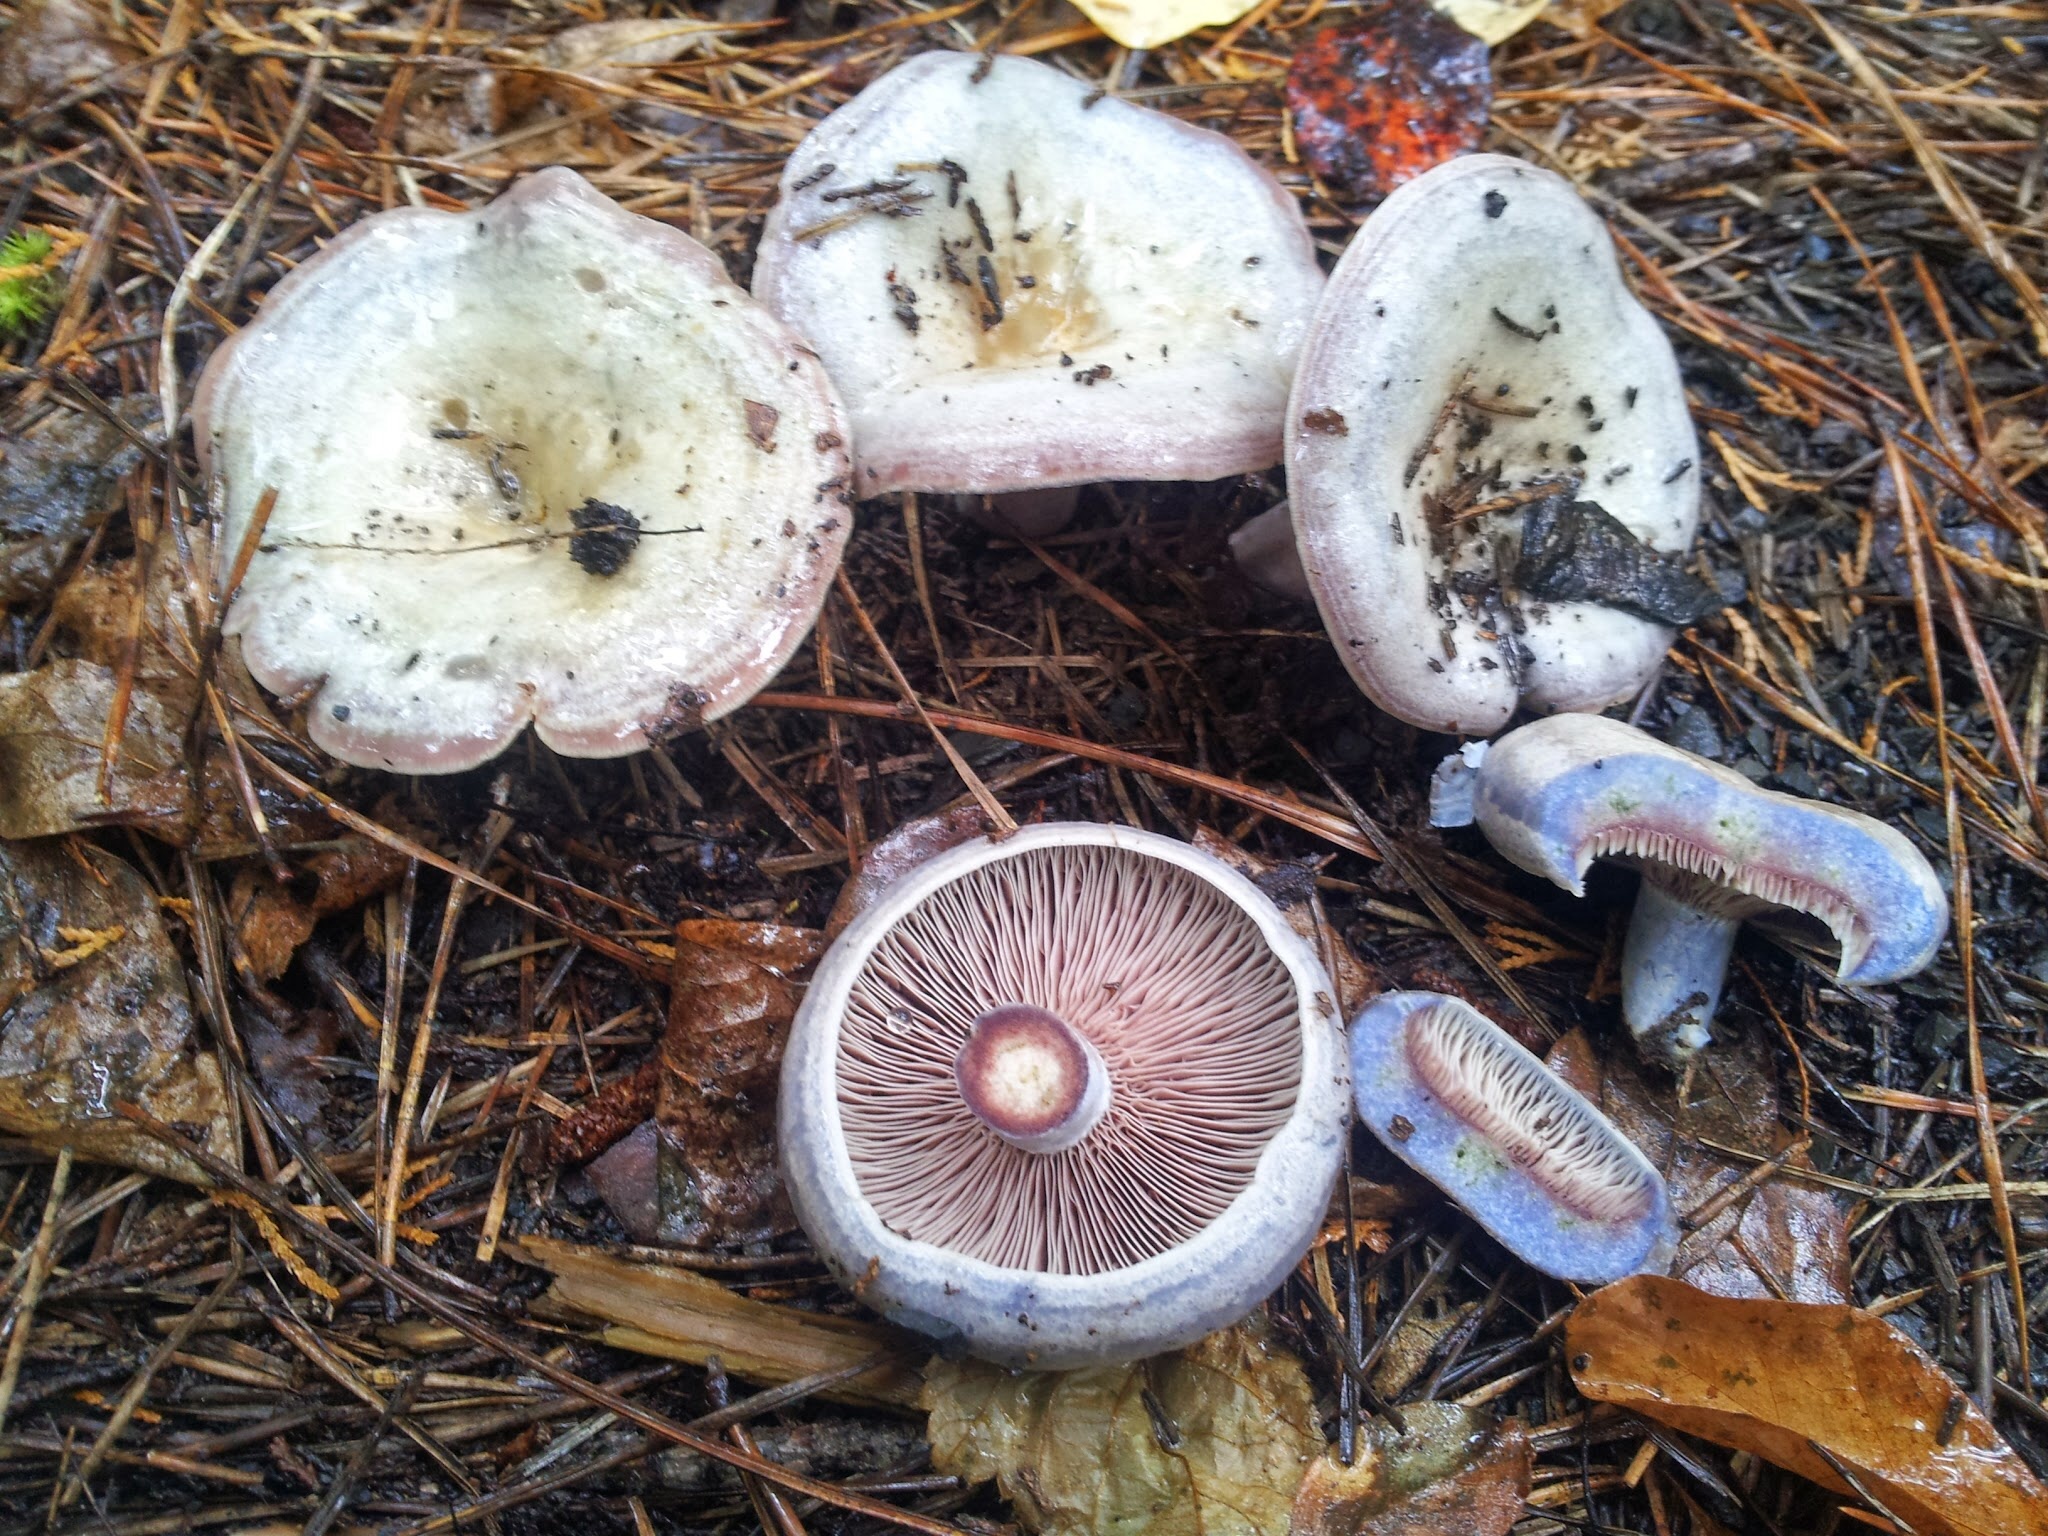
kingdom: Fungi
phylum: Basidiomycota
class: Agaricomycetes
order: Russulales
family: Russulaceae
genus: Lactarius
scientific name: Lactarius paradoxus
